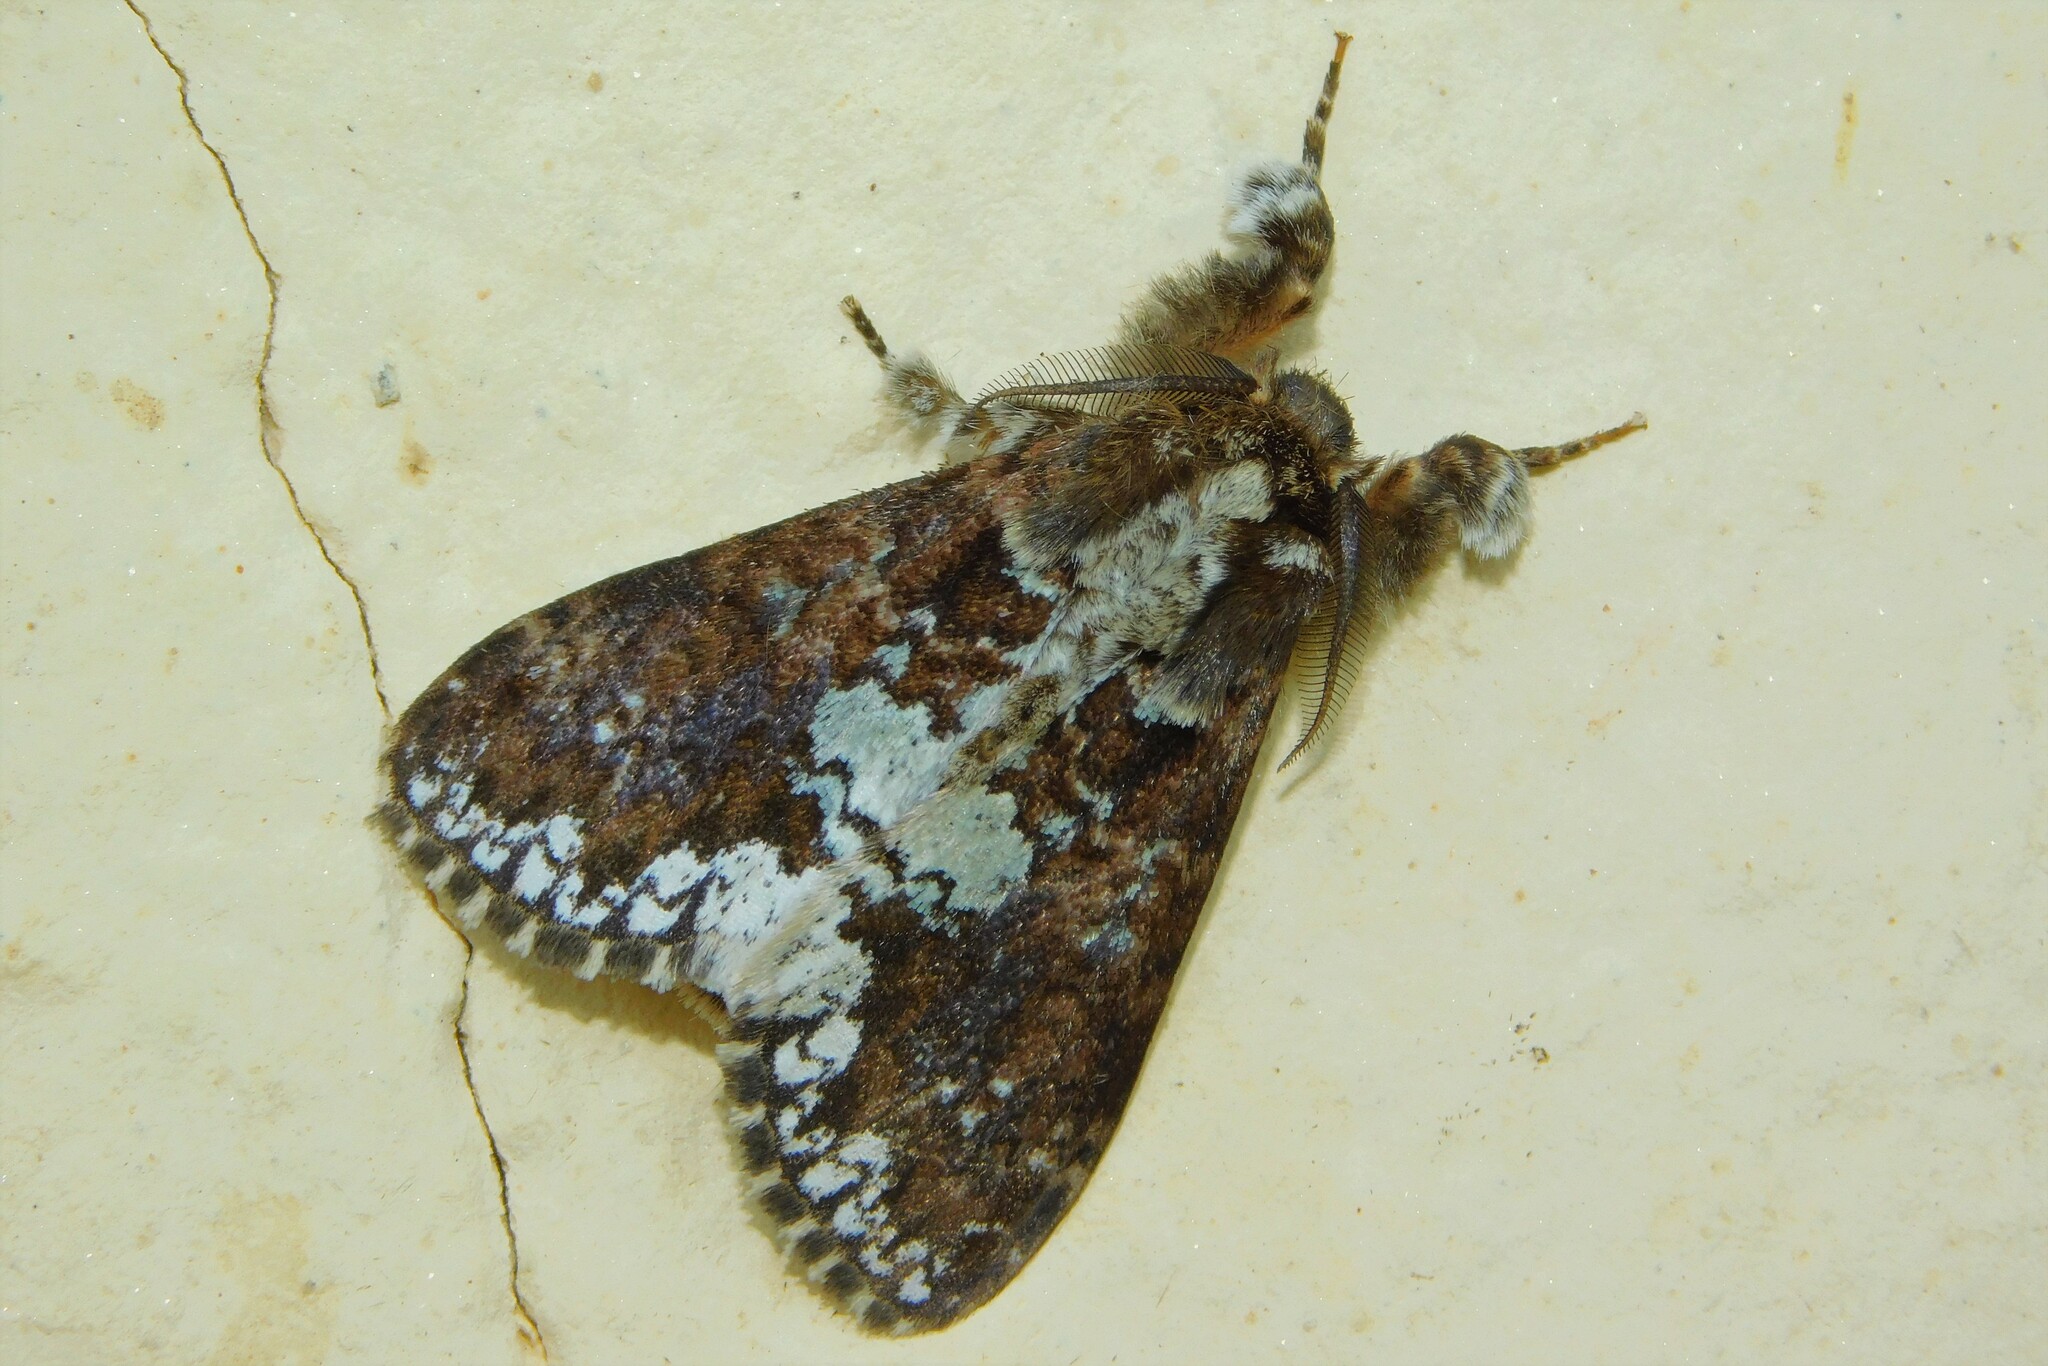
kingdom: Animalia
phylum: Arthropoda
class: Insecta
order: Lepidoptera
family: Erebidae
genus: Dasychira
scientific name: Dasychira goodii
